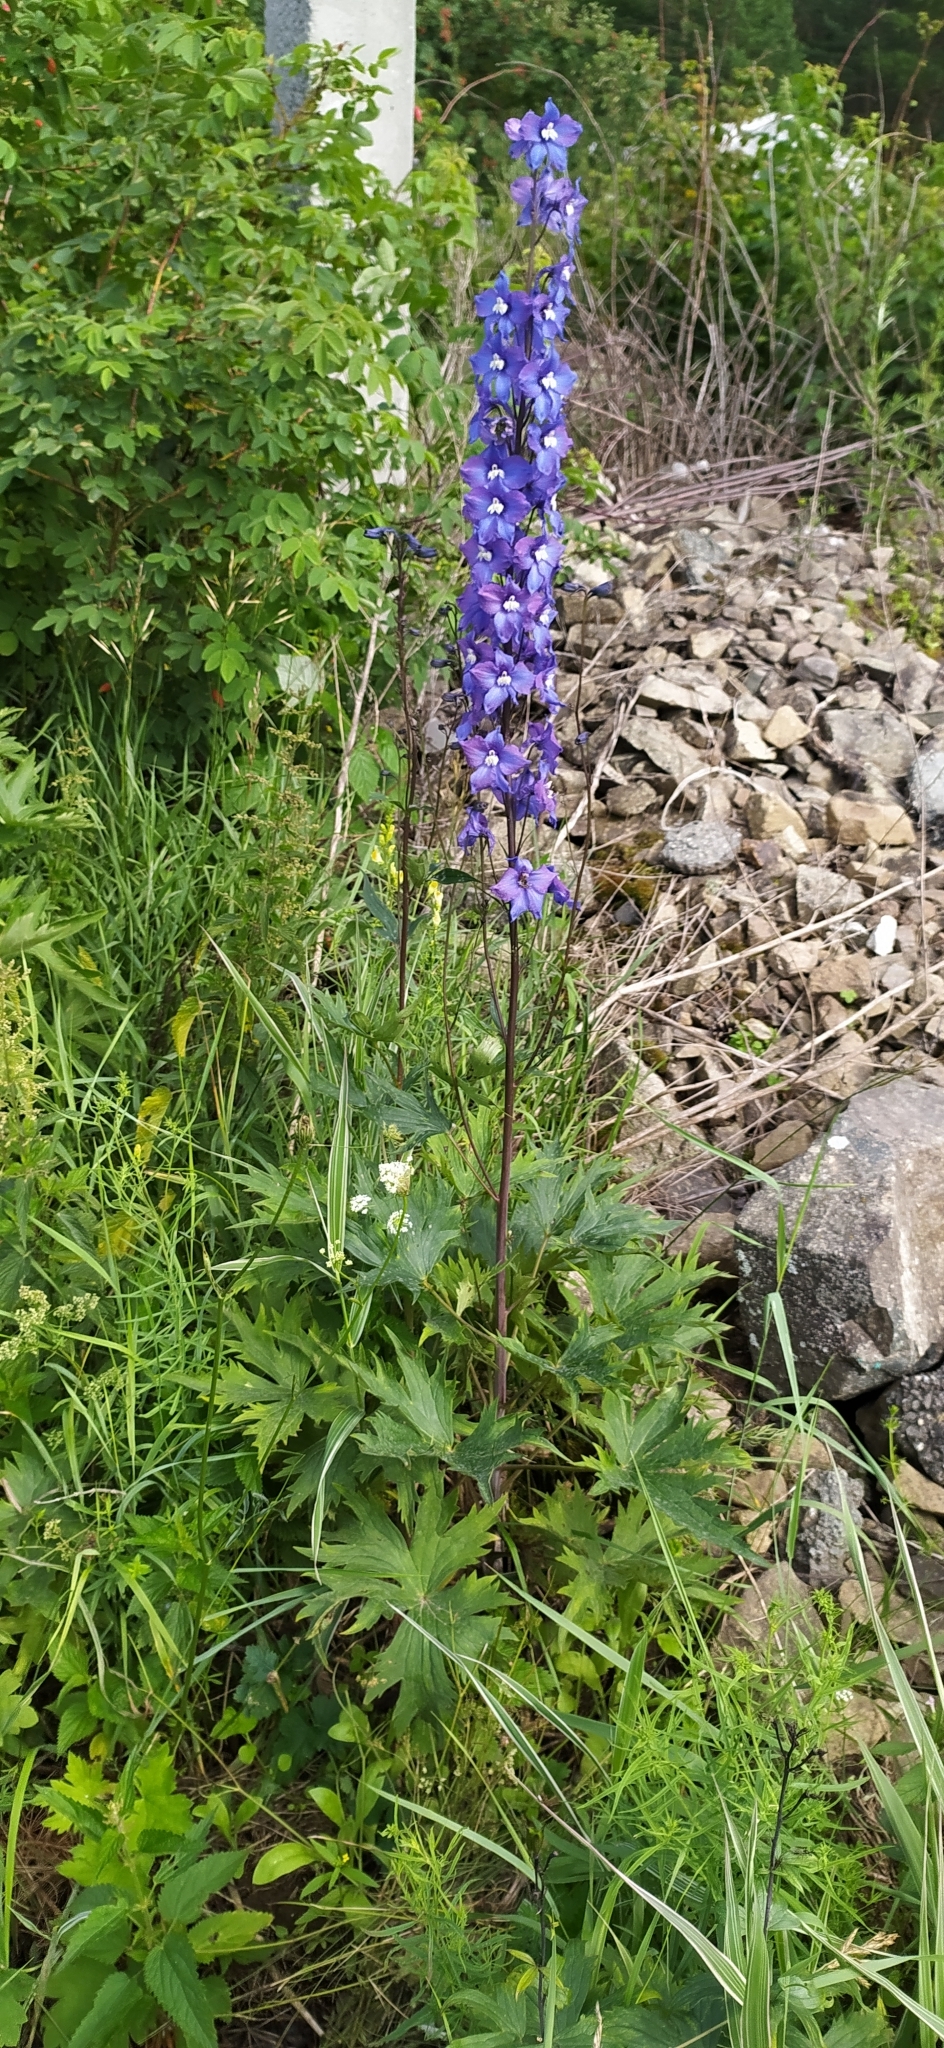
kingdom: Plantae
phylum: Tracheophyta
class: Magnoliopsida
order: Ranunculales
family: Ranunculaceae
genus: Delphinium
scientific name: Delphinium cultorum
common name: Garden delphinium
